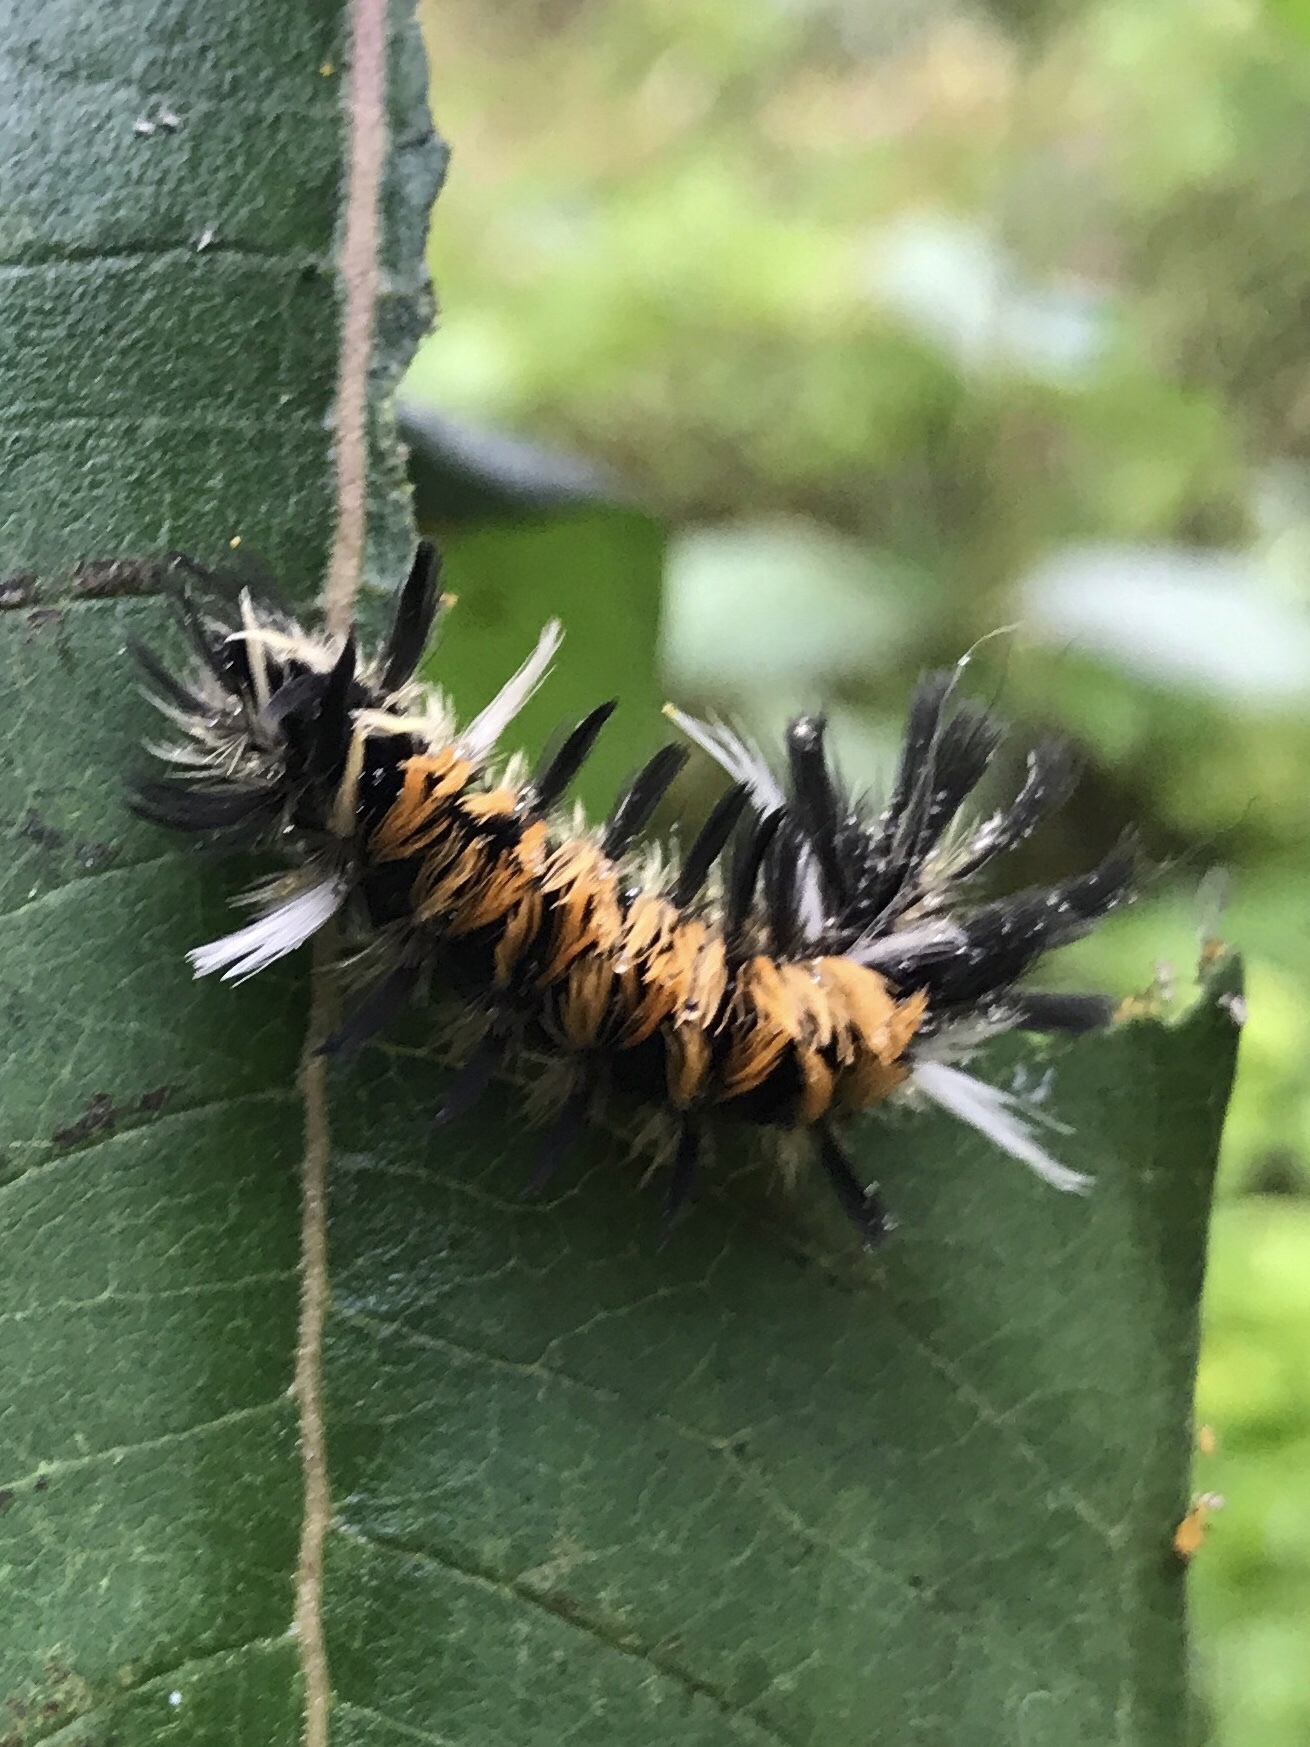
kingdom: Animalia
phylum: Arthropoda
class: Insecta
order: Lepidoptera
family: Erebidae
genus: Euchaetes
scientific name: Euchaetes egle
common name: Milkweed tussock moth
